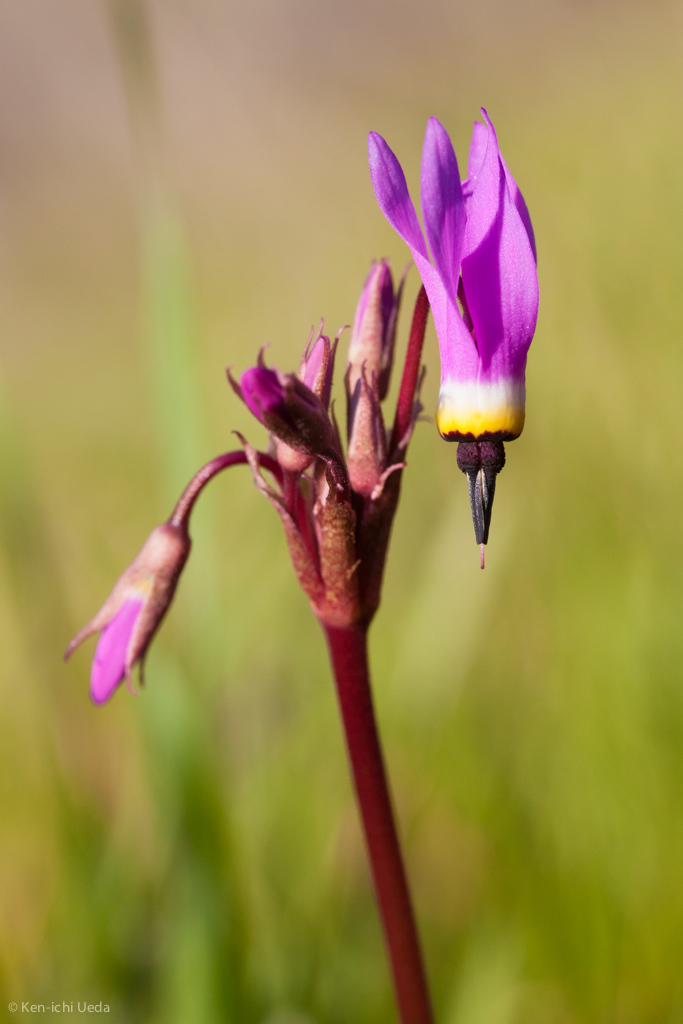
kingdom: Plantae
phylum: Tracheophyta
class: Magnoliopsida
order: Ericales
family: Primulaceae
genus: Dodecatheon
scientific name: Dodecatheon hendersonii
